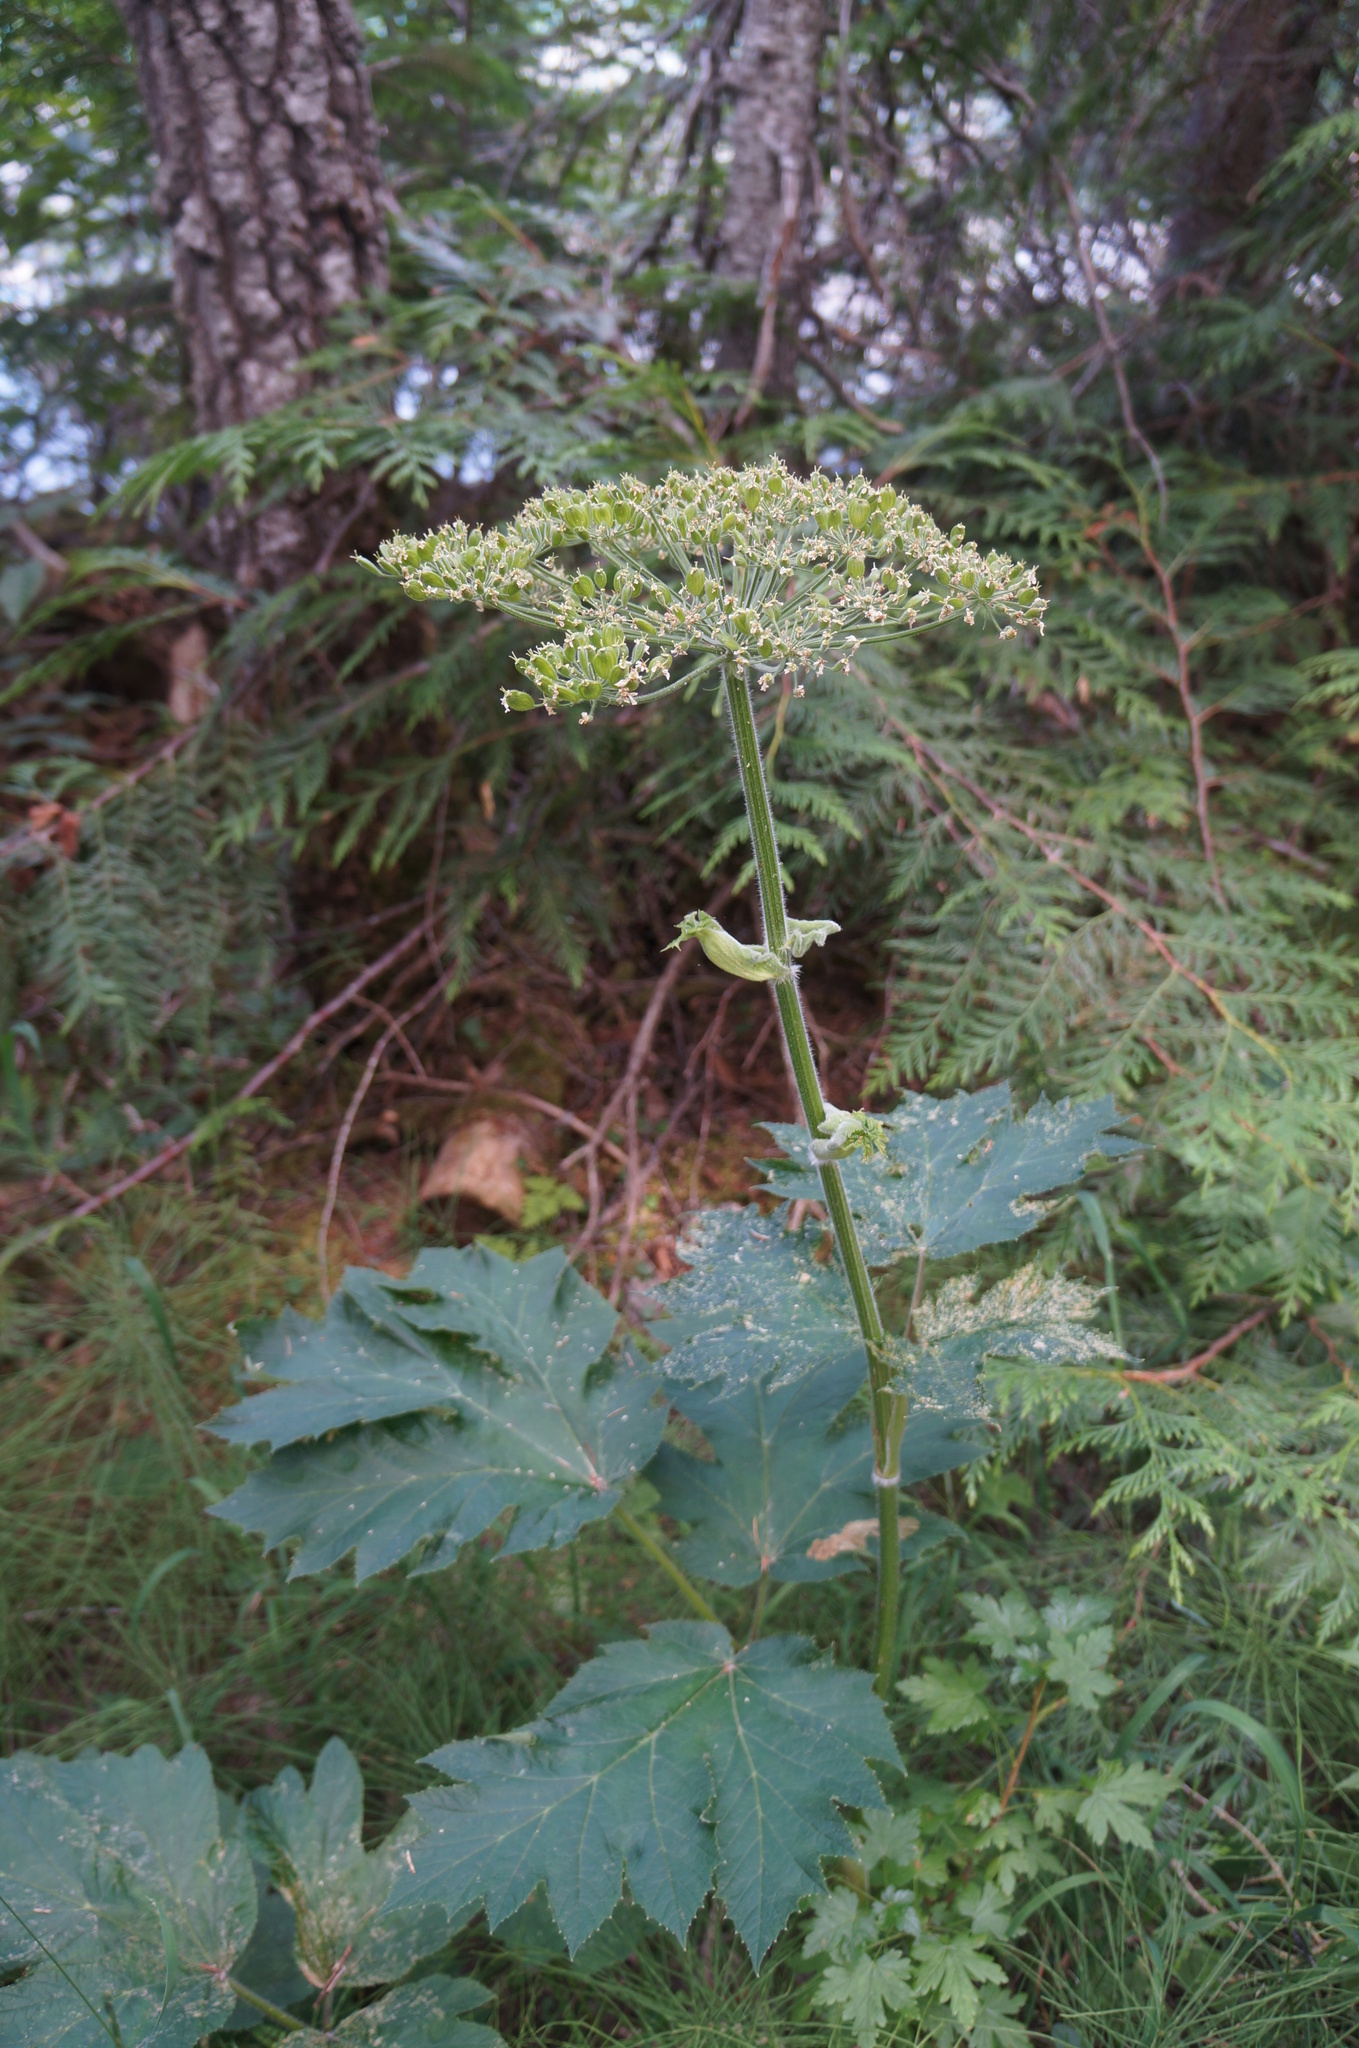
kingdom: Plantae
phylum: Tracheophyta
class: Magnoliopsida
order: Apiales
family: Apiaceae
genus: Heracleum
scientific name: Heracleum maximum
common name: American cow parsnip
